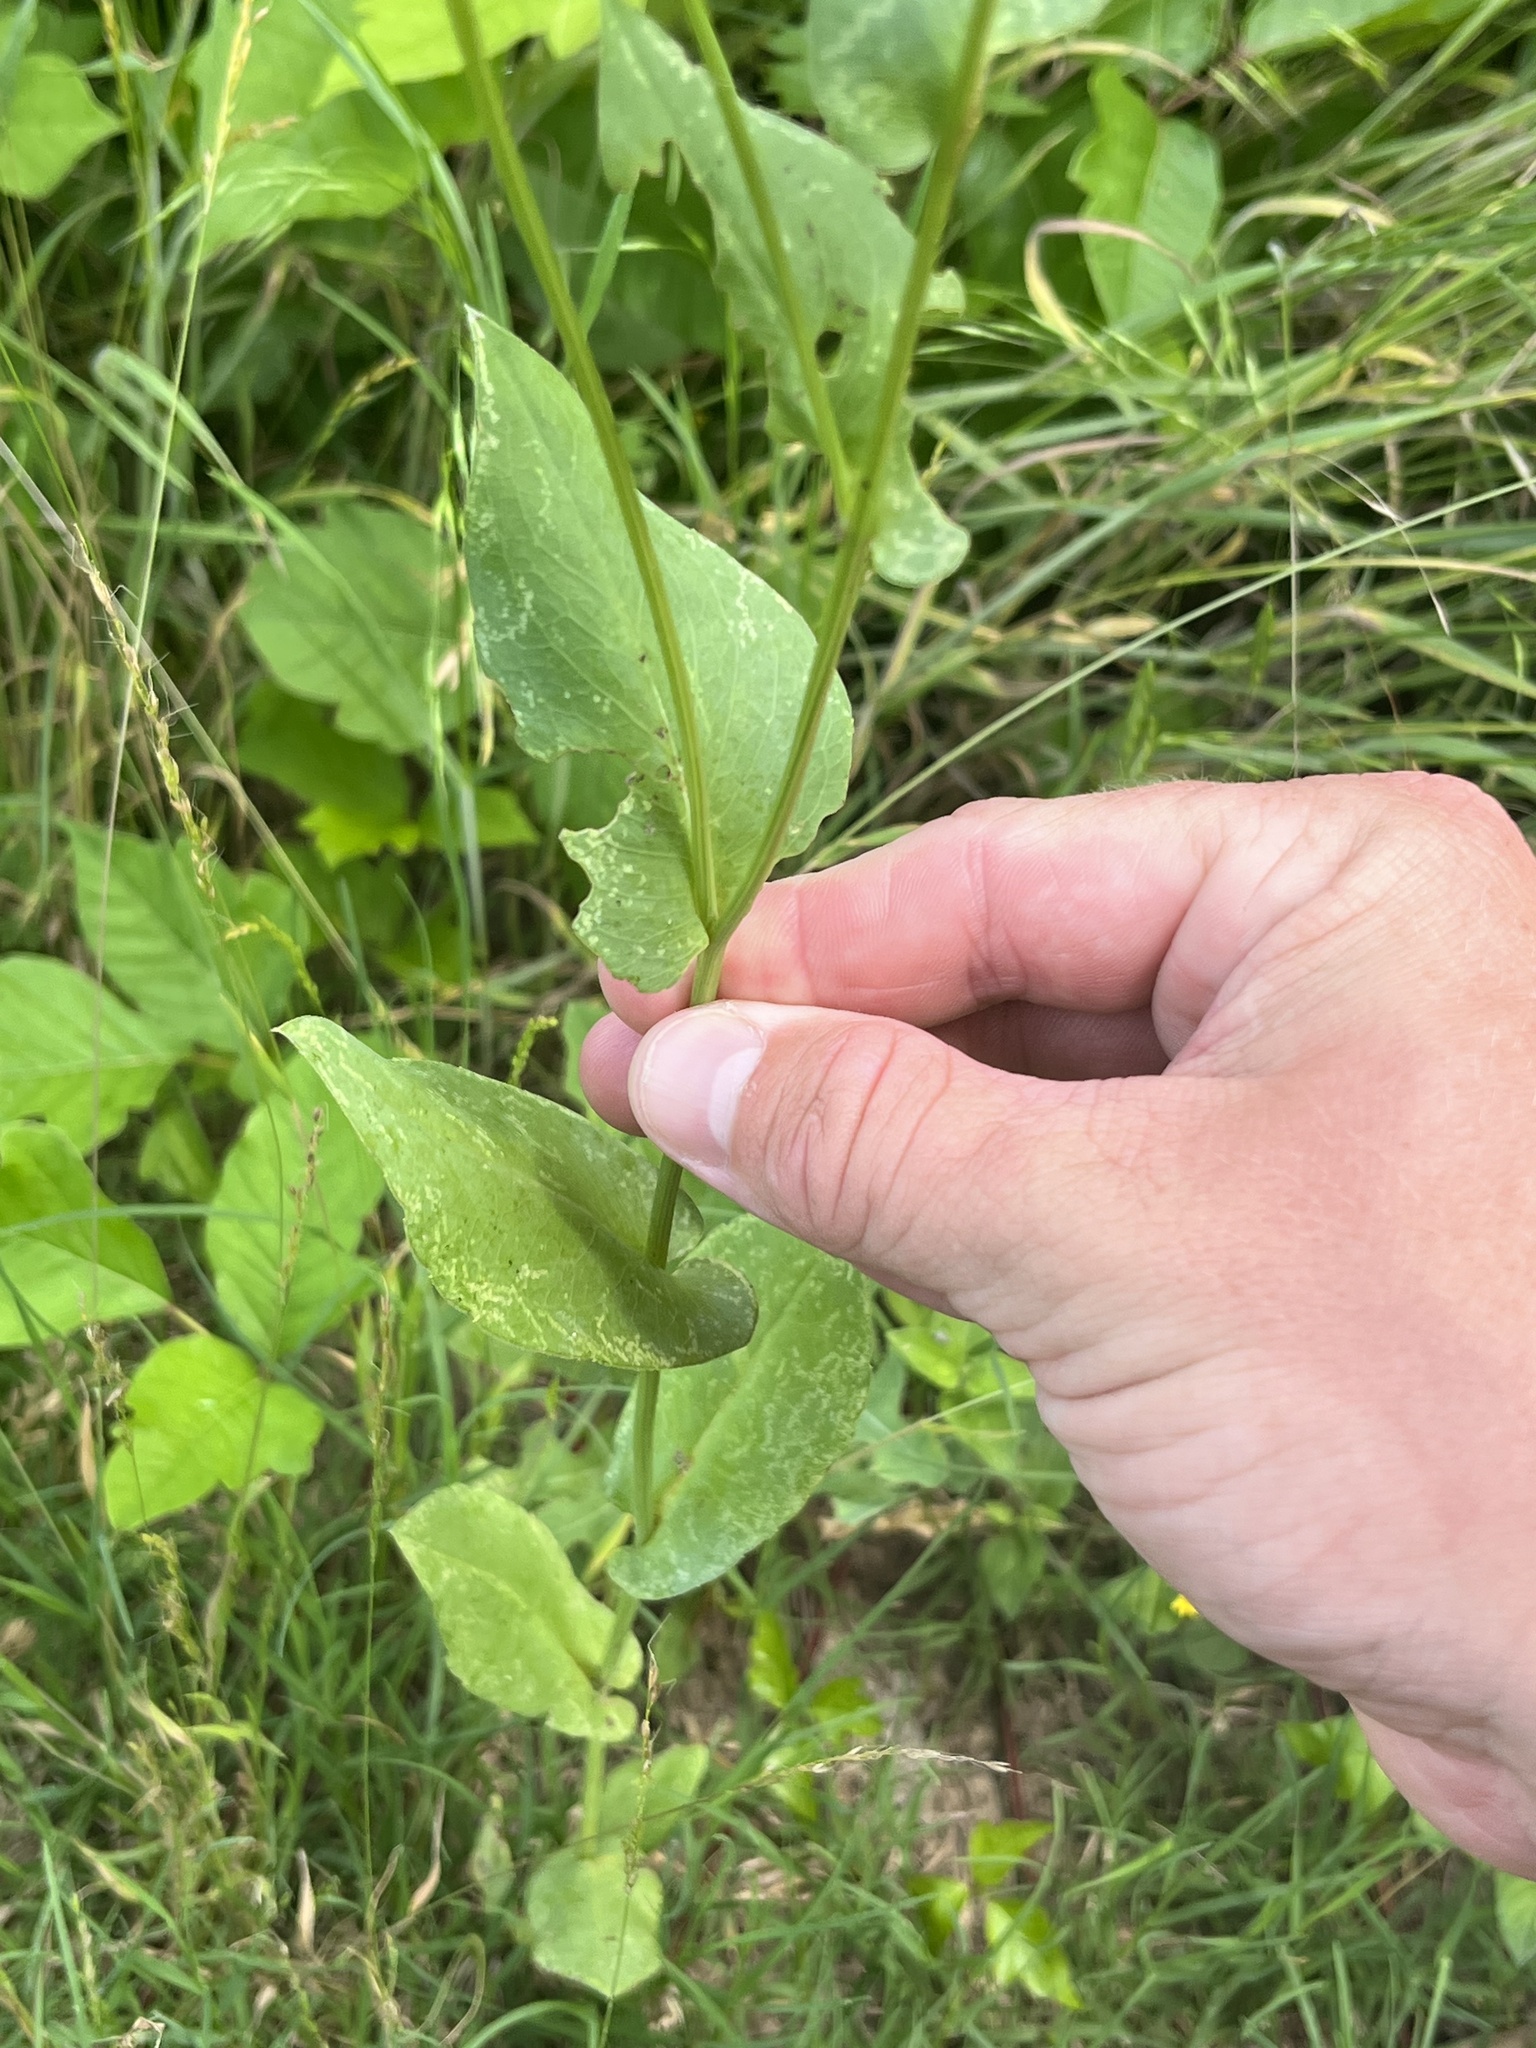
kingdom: Plantae
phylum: Tracheophyta
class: Magnoliopsida
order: Asterales
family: Asteraceae
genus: Rudbeckia
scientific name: Rudbeckia amplexicaulis
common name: Clasping-leaf coneflower
